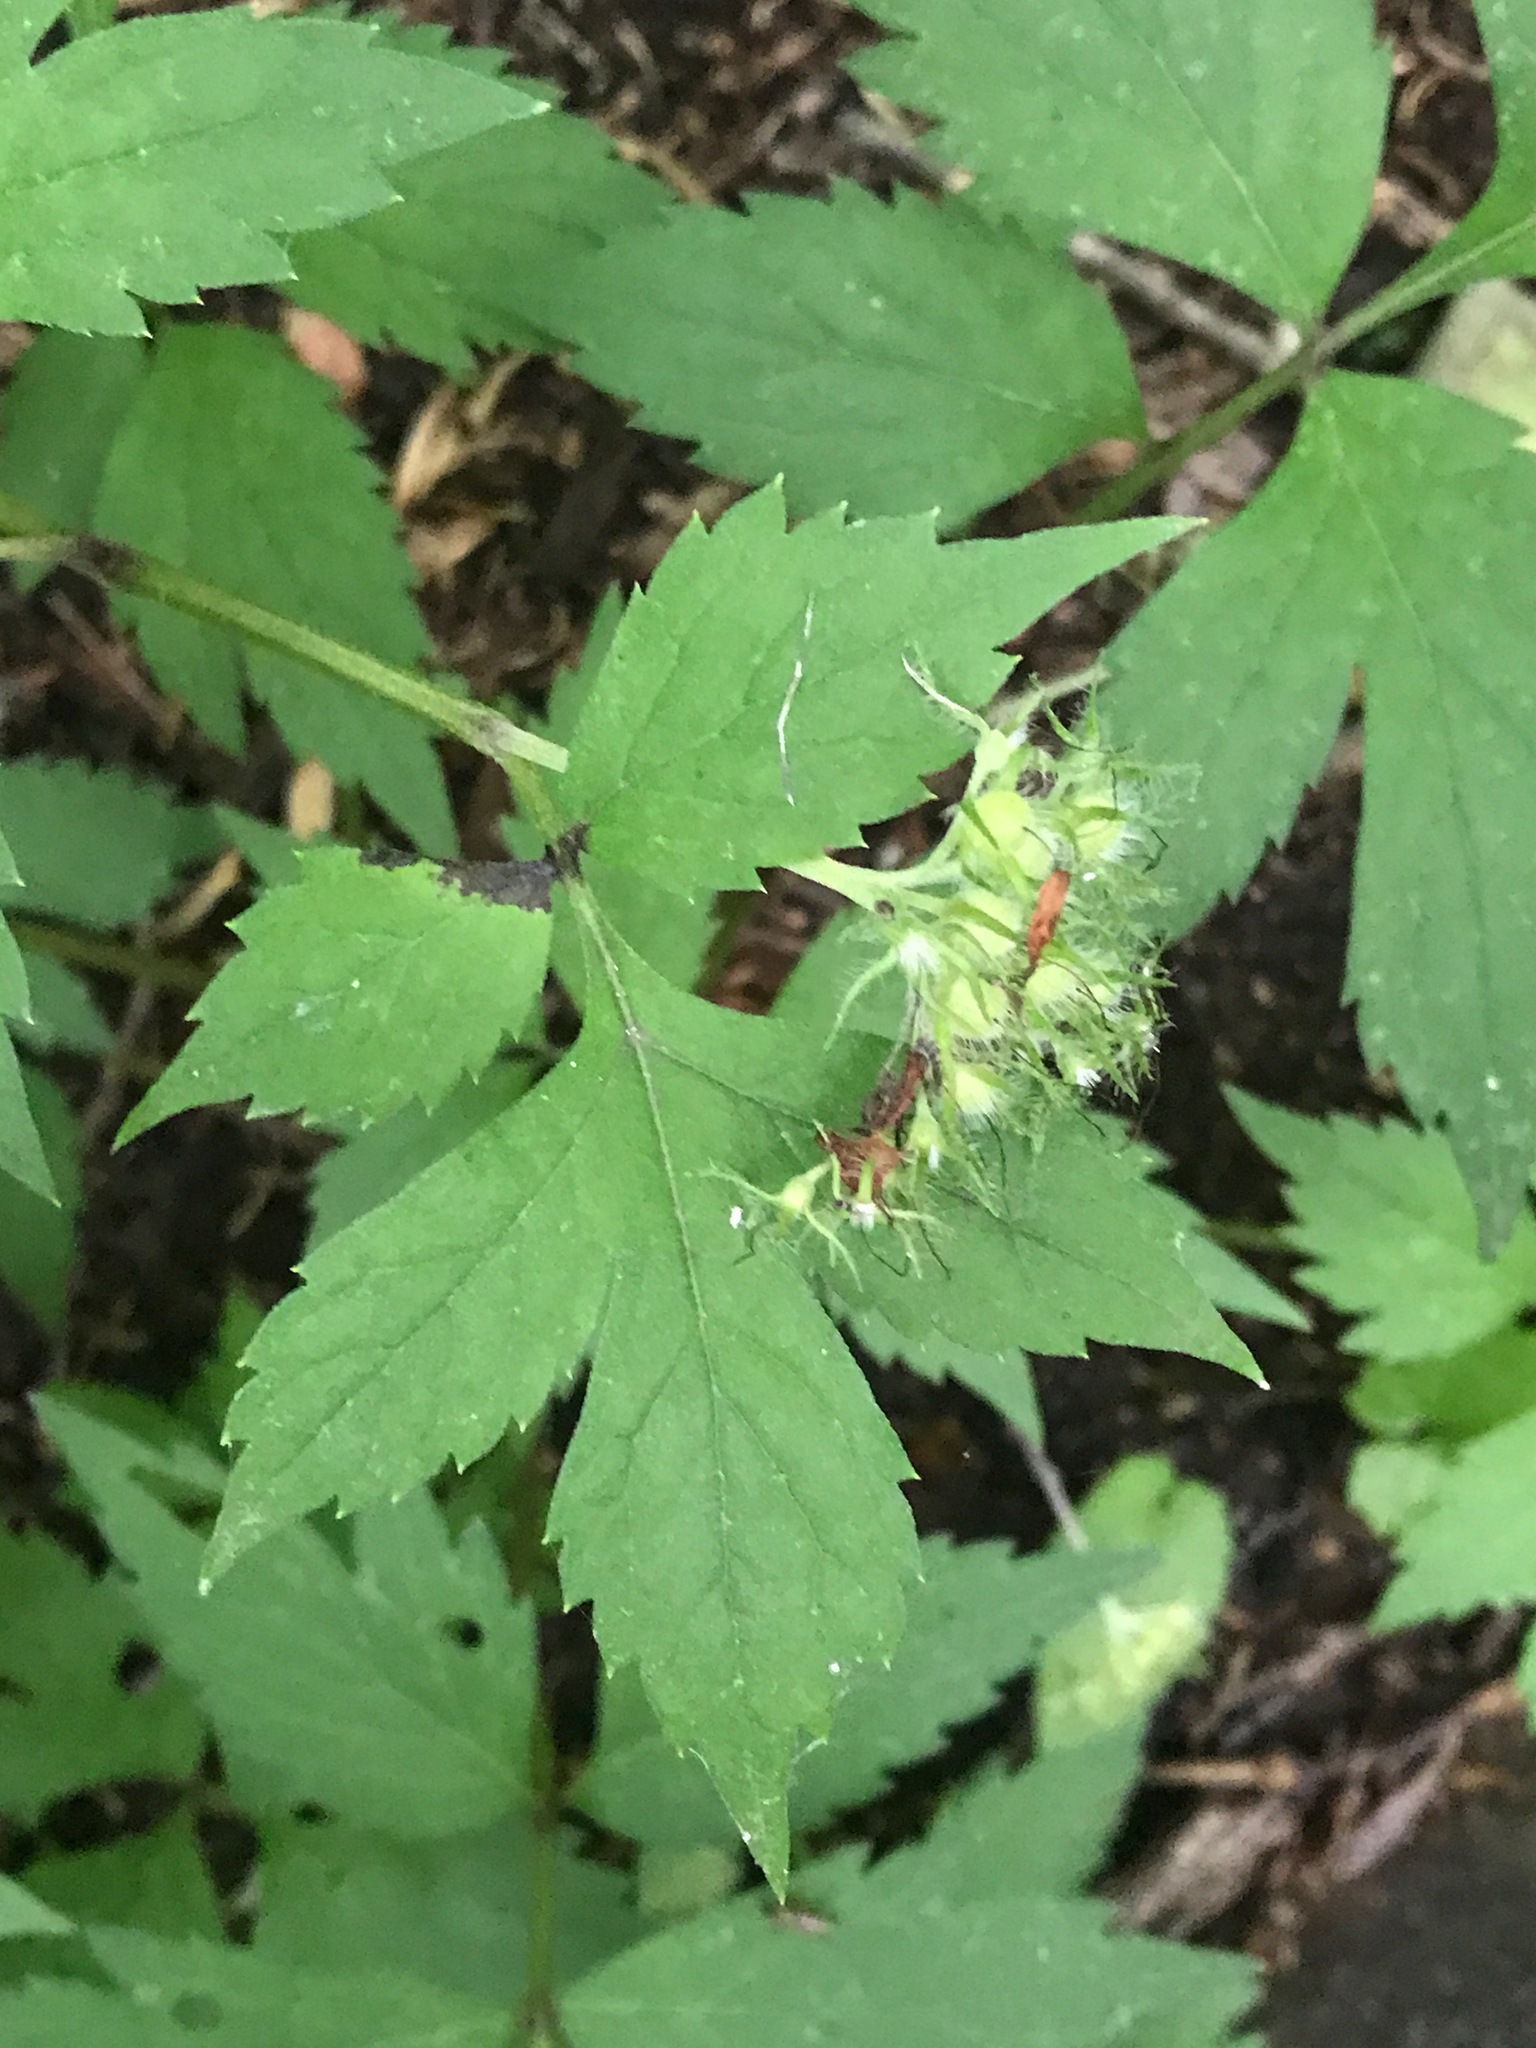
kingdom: Plantae
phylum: Tracheophyta
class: Magnoliopsida
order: Boraginales
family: Hydrophyllaceae
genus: Hydrophyllum
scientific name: Hydrophyllum virginianum
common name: Virginia waterleaf
